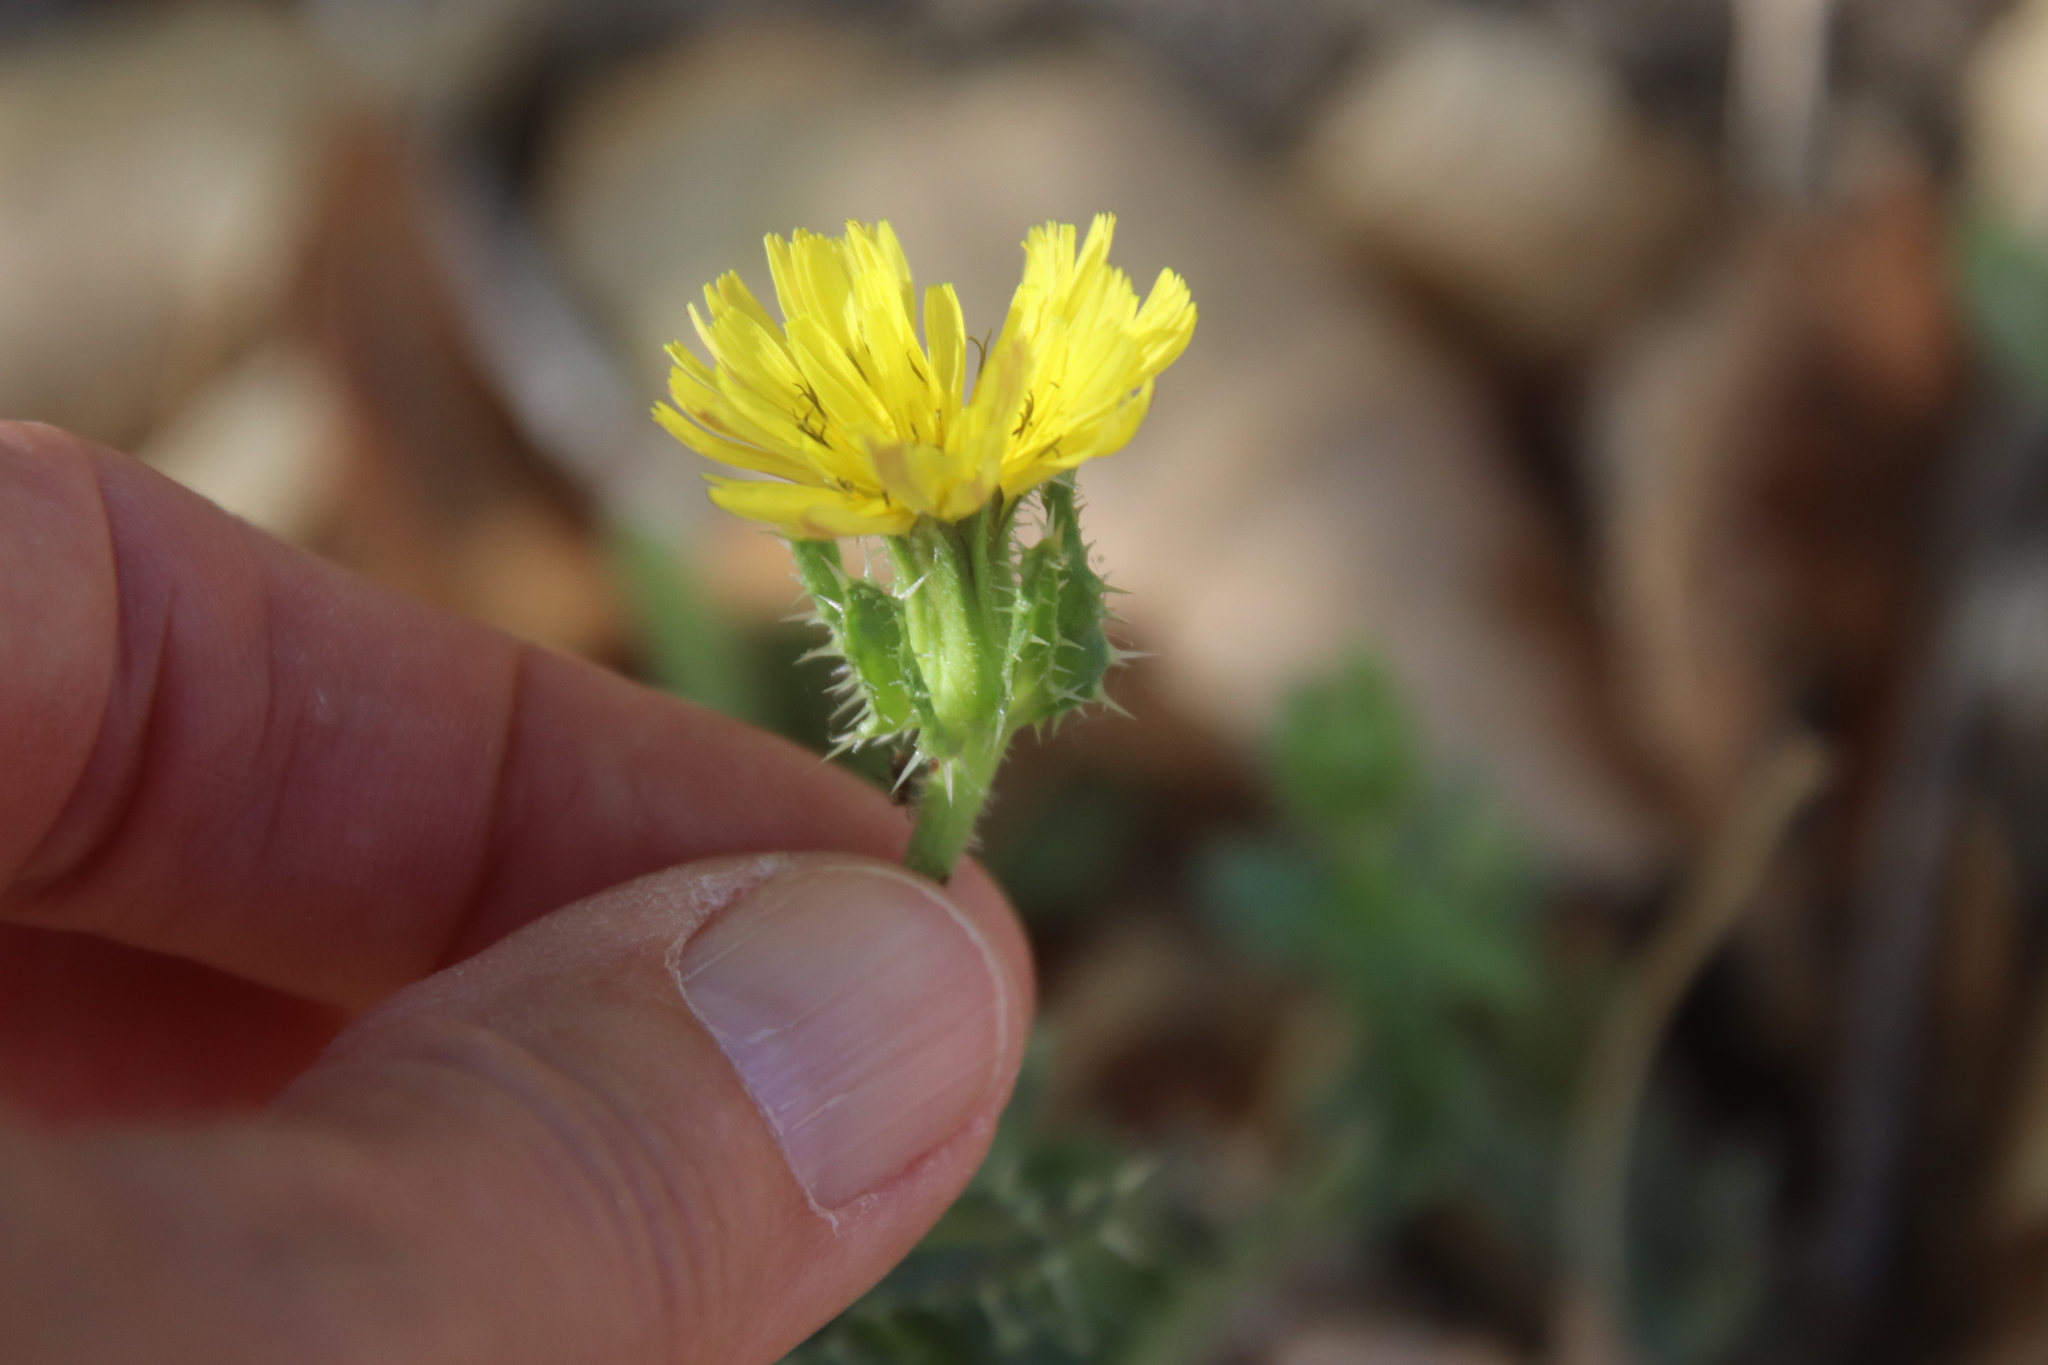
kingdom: Plantae
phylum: Tracheophyta
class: Magnoliopsida
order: Asterales
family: Asteraceae
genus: Helminthotheca
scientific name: Helminthotheca echioides
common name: Ox-tongue
